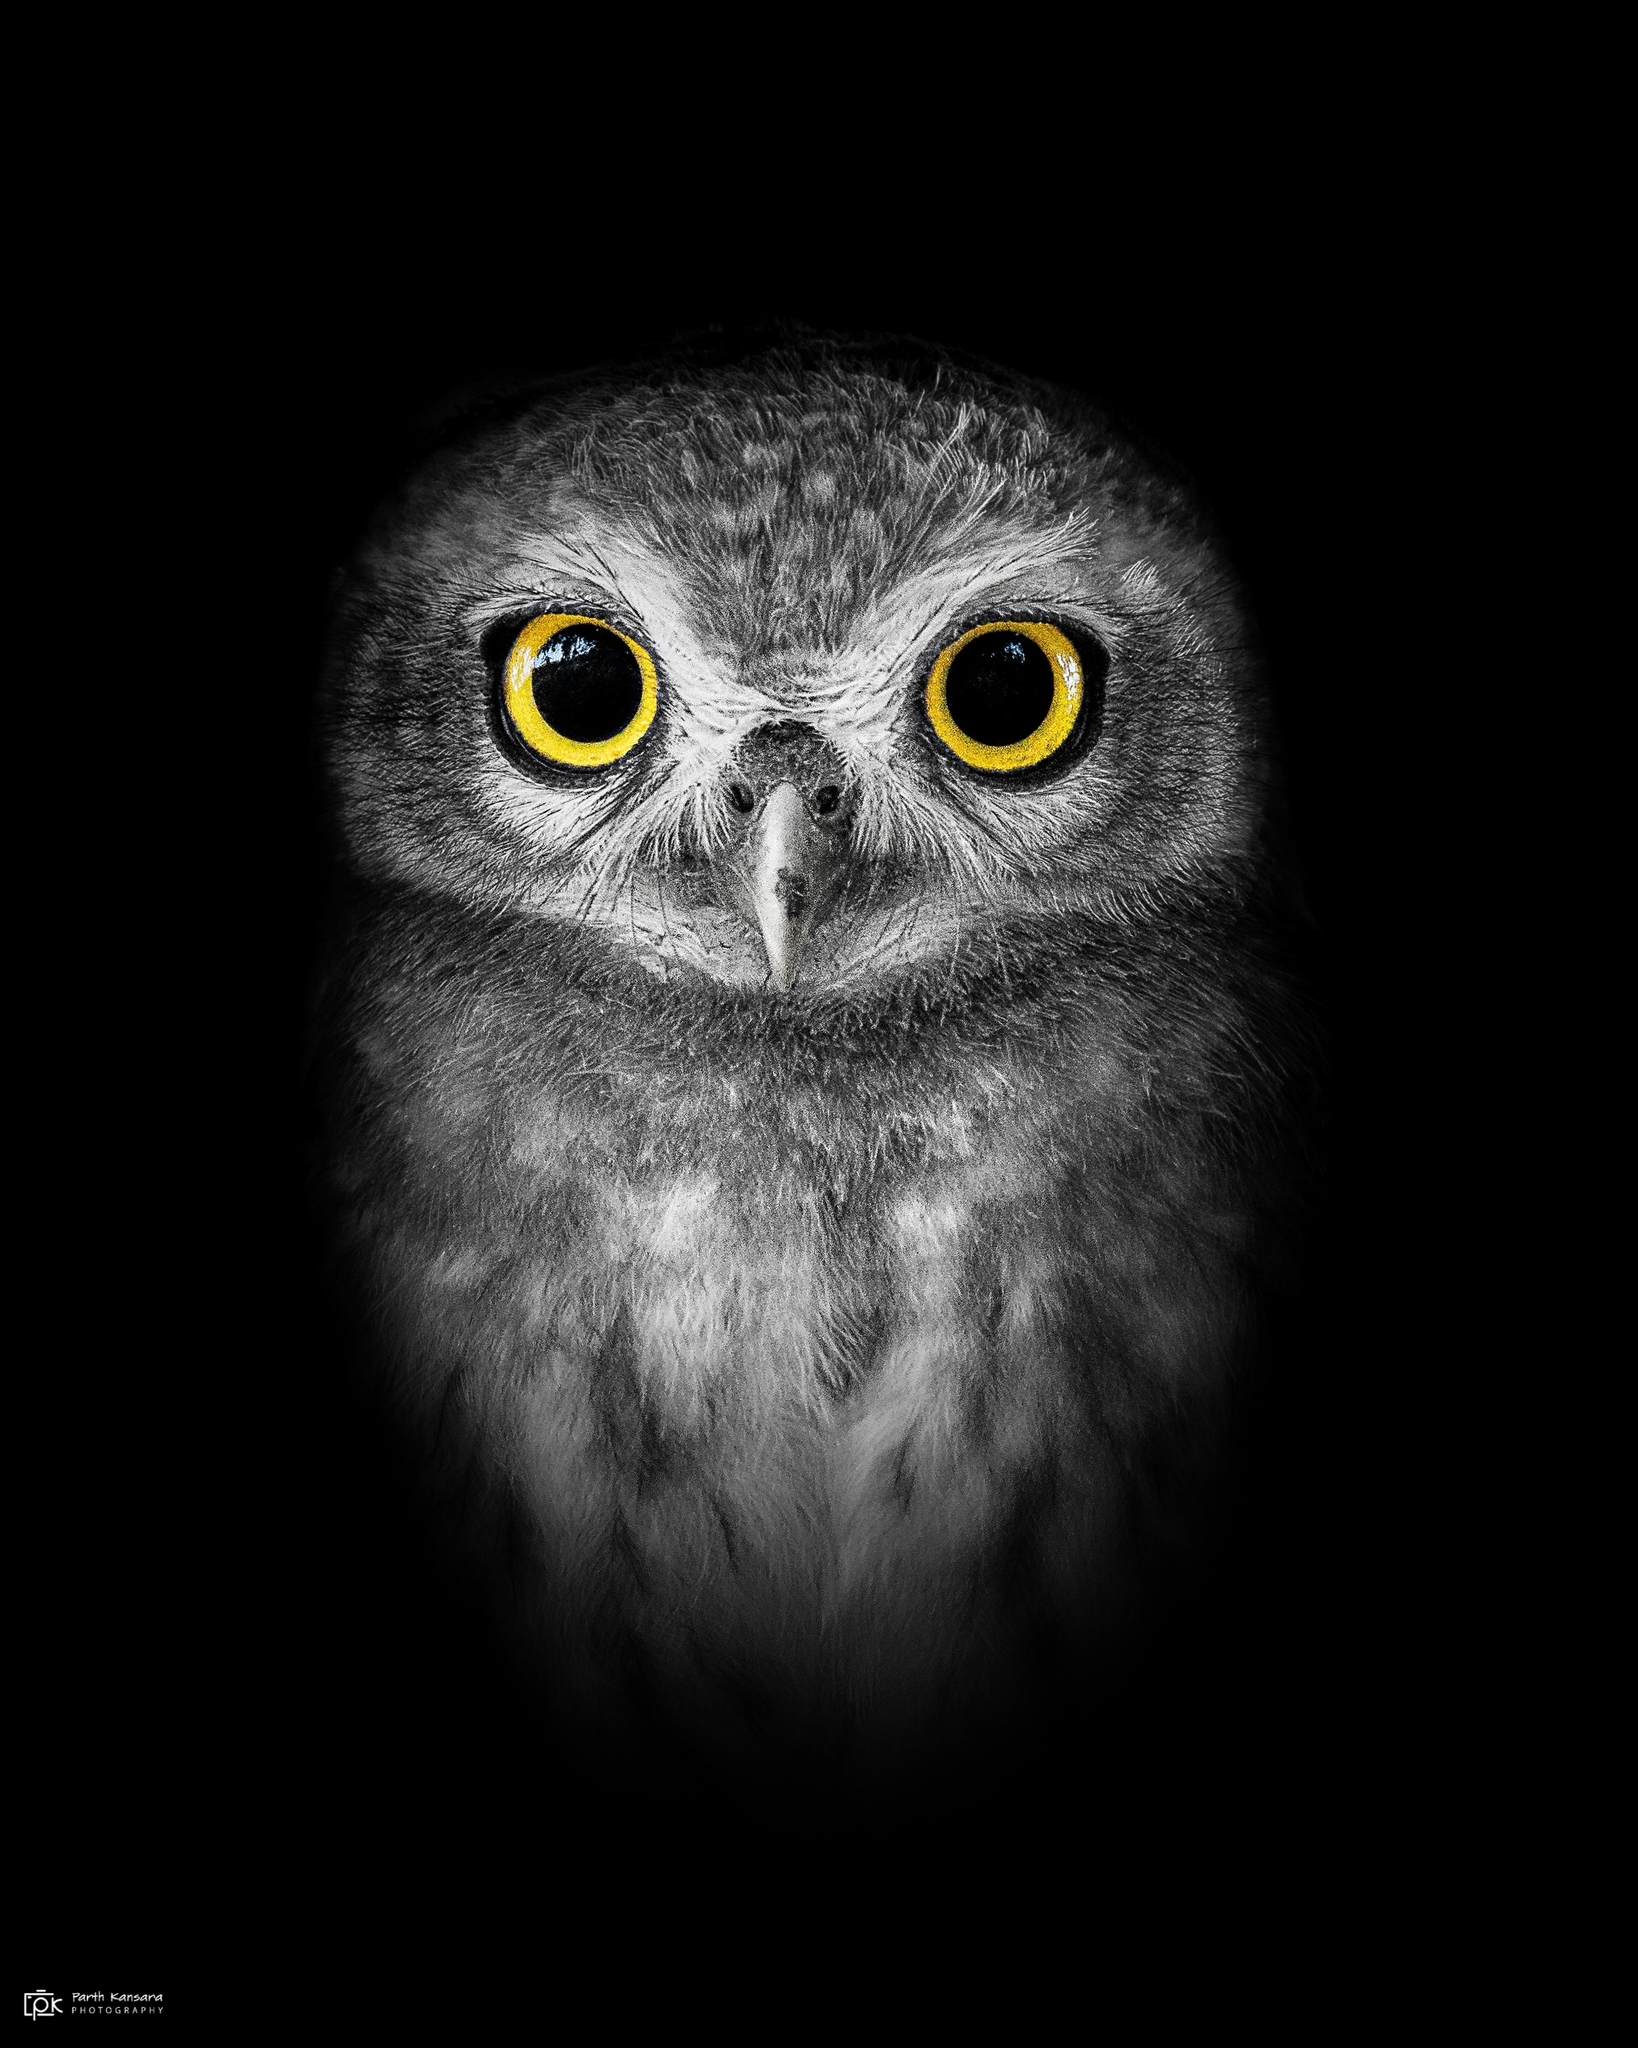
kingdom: Animalia
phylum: Chordata
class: Aves
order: Strigiformes
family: Strigidae
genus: Athene
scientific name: Athene brama
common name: Spotted owlet
